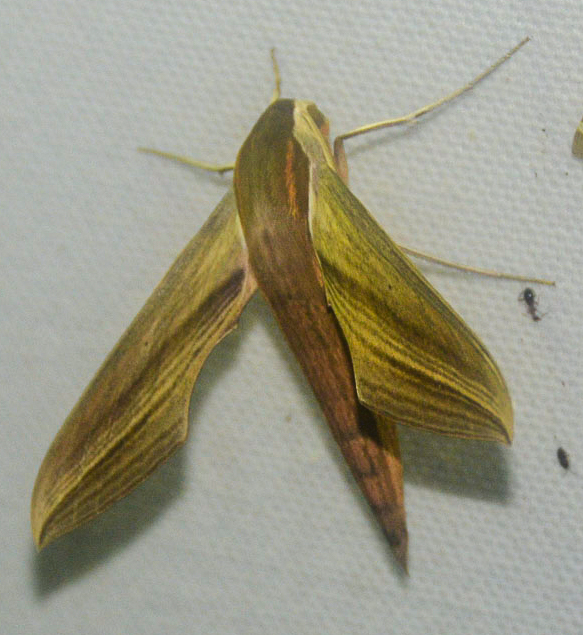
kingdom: Animalia
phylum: Arthropoda
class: Insecta
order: Lepidoptera
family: Sphingidae
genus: Xylophanes
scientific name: Xylophanes tersa
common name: Tersa sphinx
